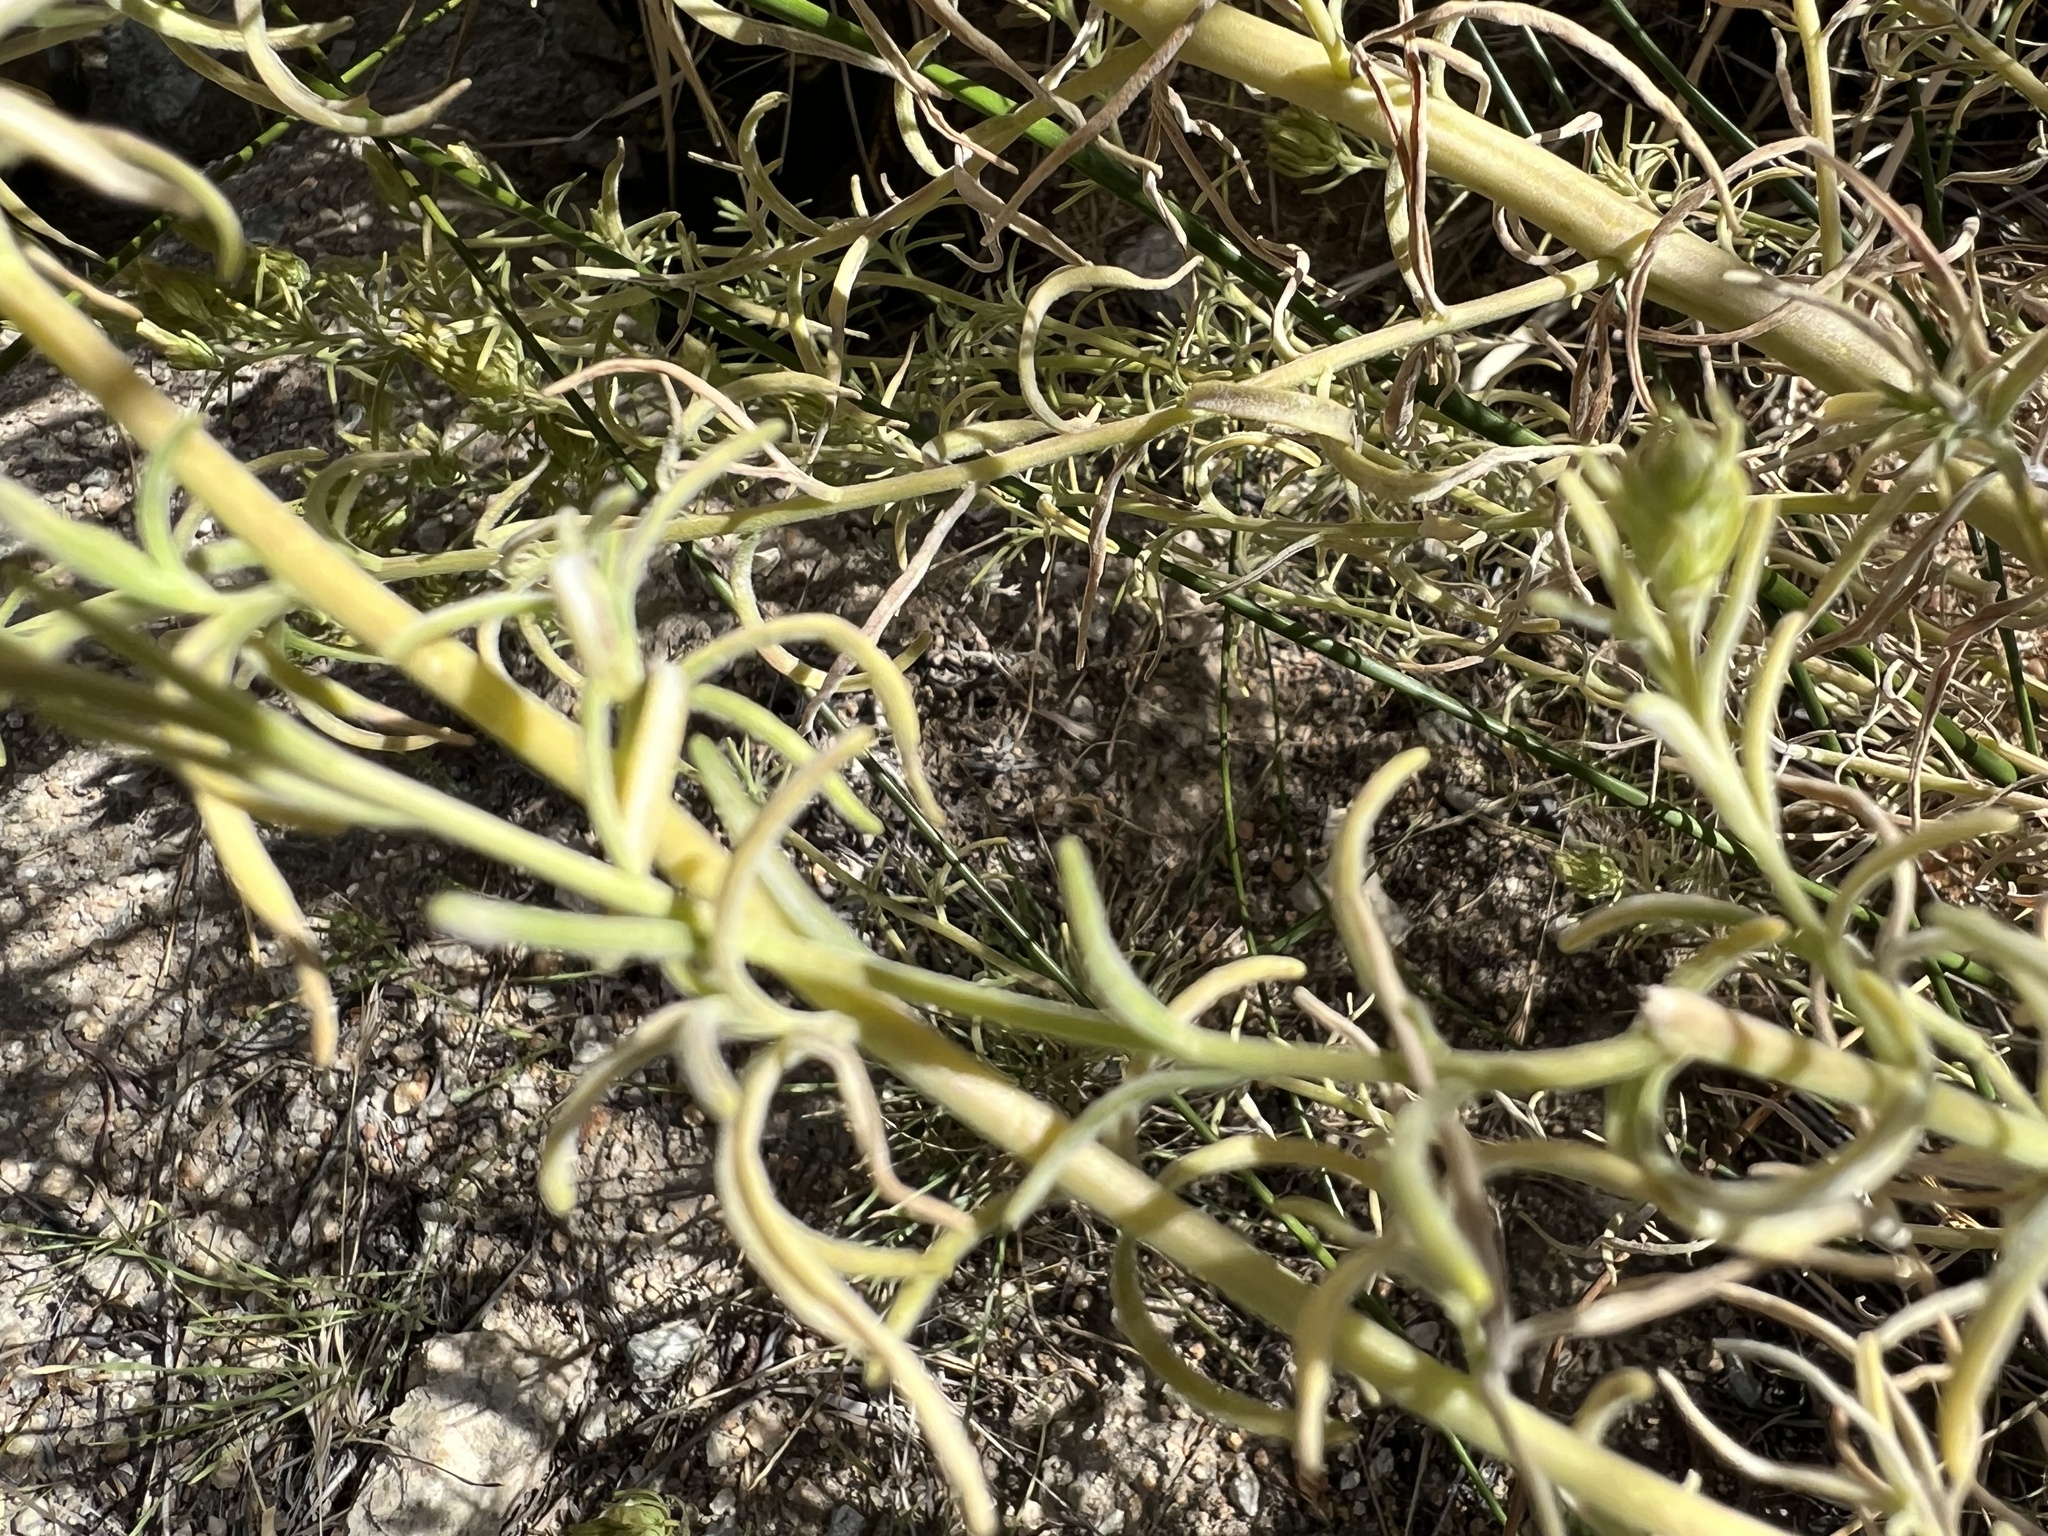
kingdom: Plantae
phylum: Tracheophyta
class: Magnoliopsida
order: Lamiales
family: Orobanchaceae
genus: Cordylanthus
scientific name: Cordylanthus ramosus
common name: Much-branched bird's-beak
